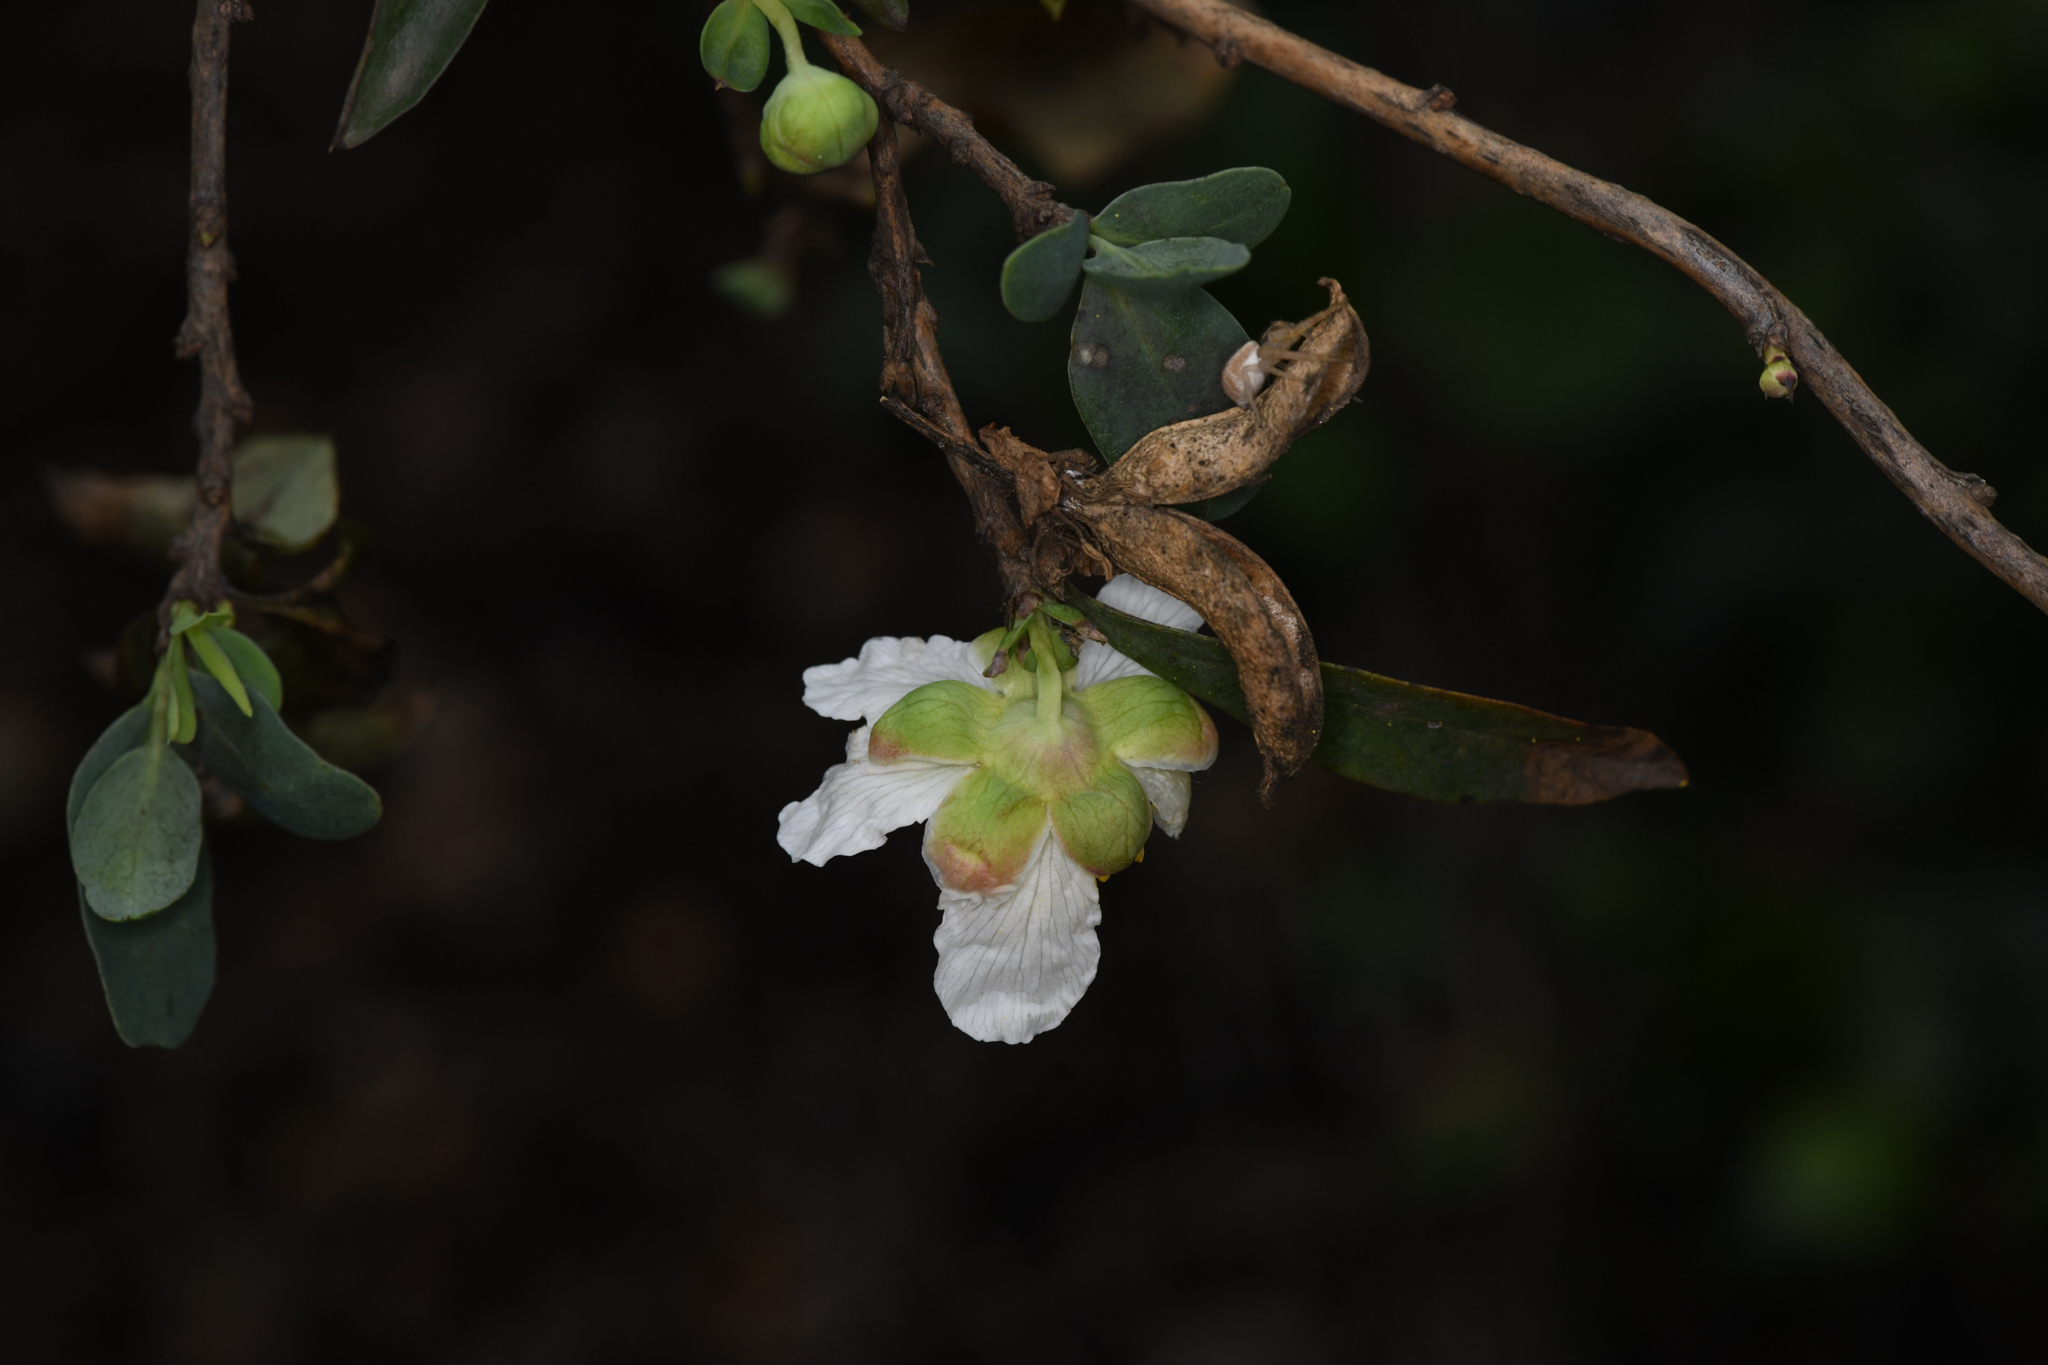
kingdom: Plantae
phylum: Tracheophyta
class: Magnoliopsida
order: Crossosomatales
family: Crossosomataceae
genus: Crossosoma
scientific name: Crossosoma californicum
